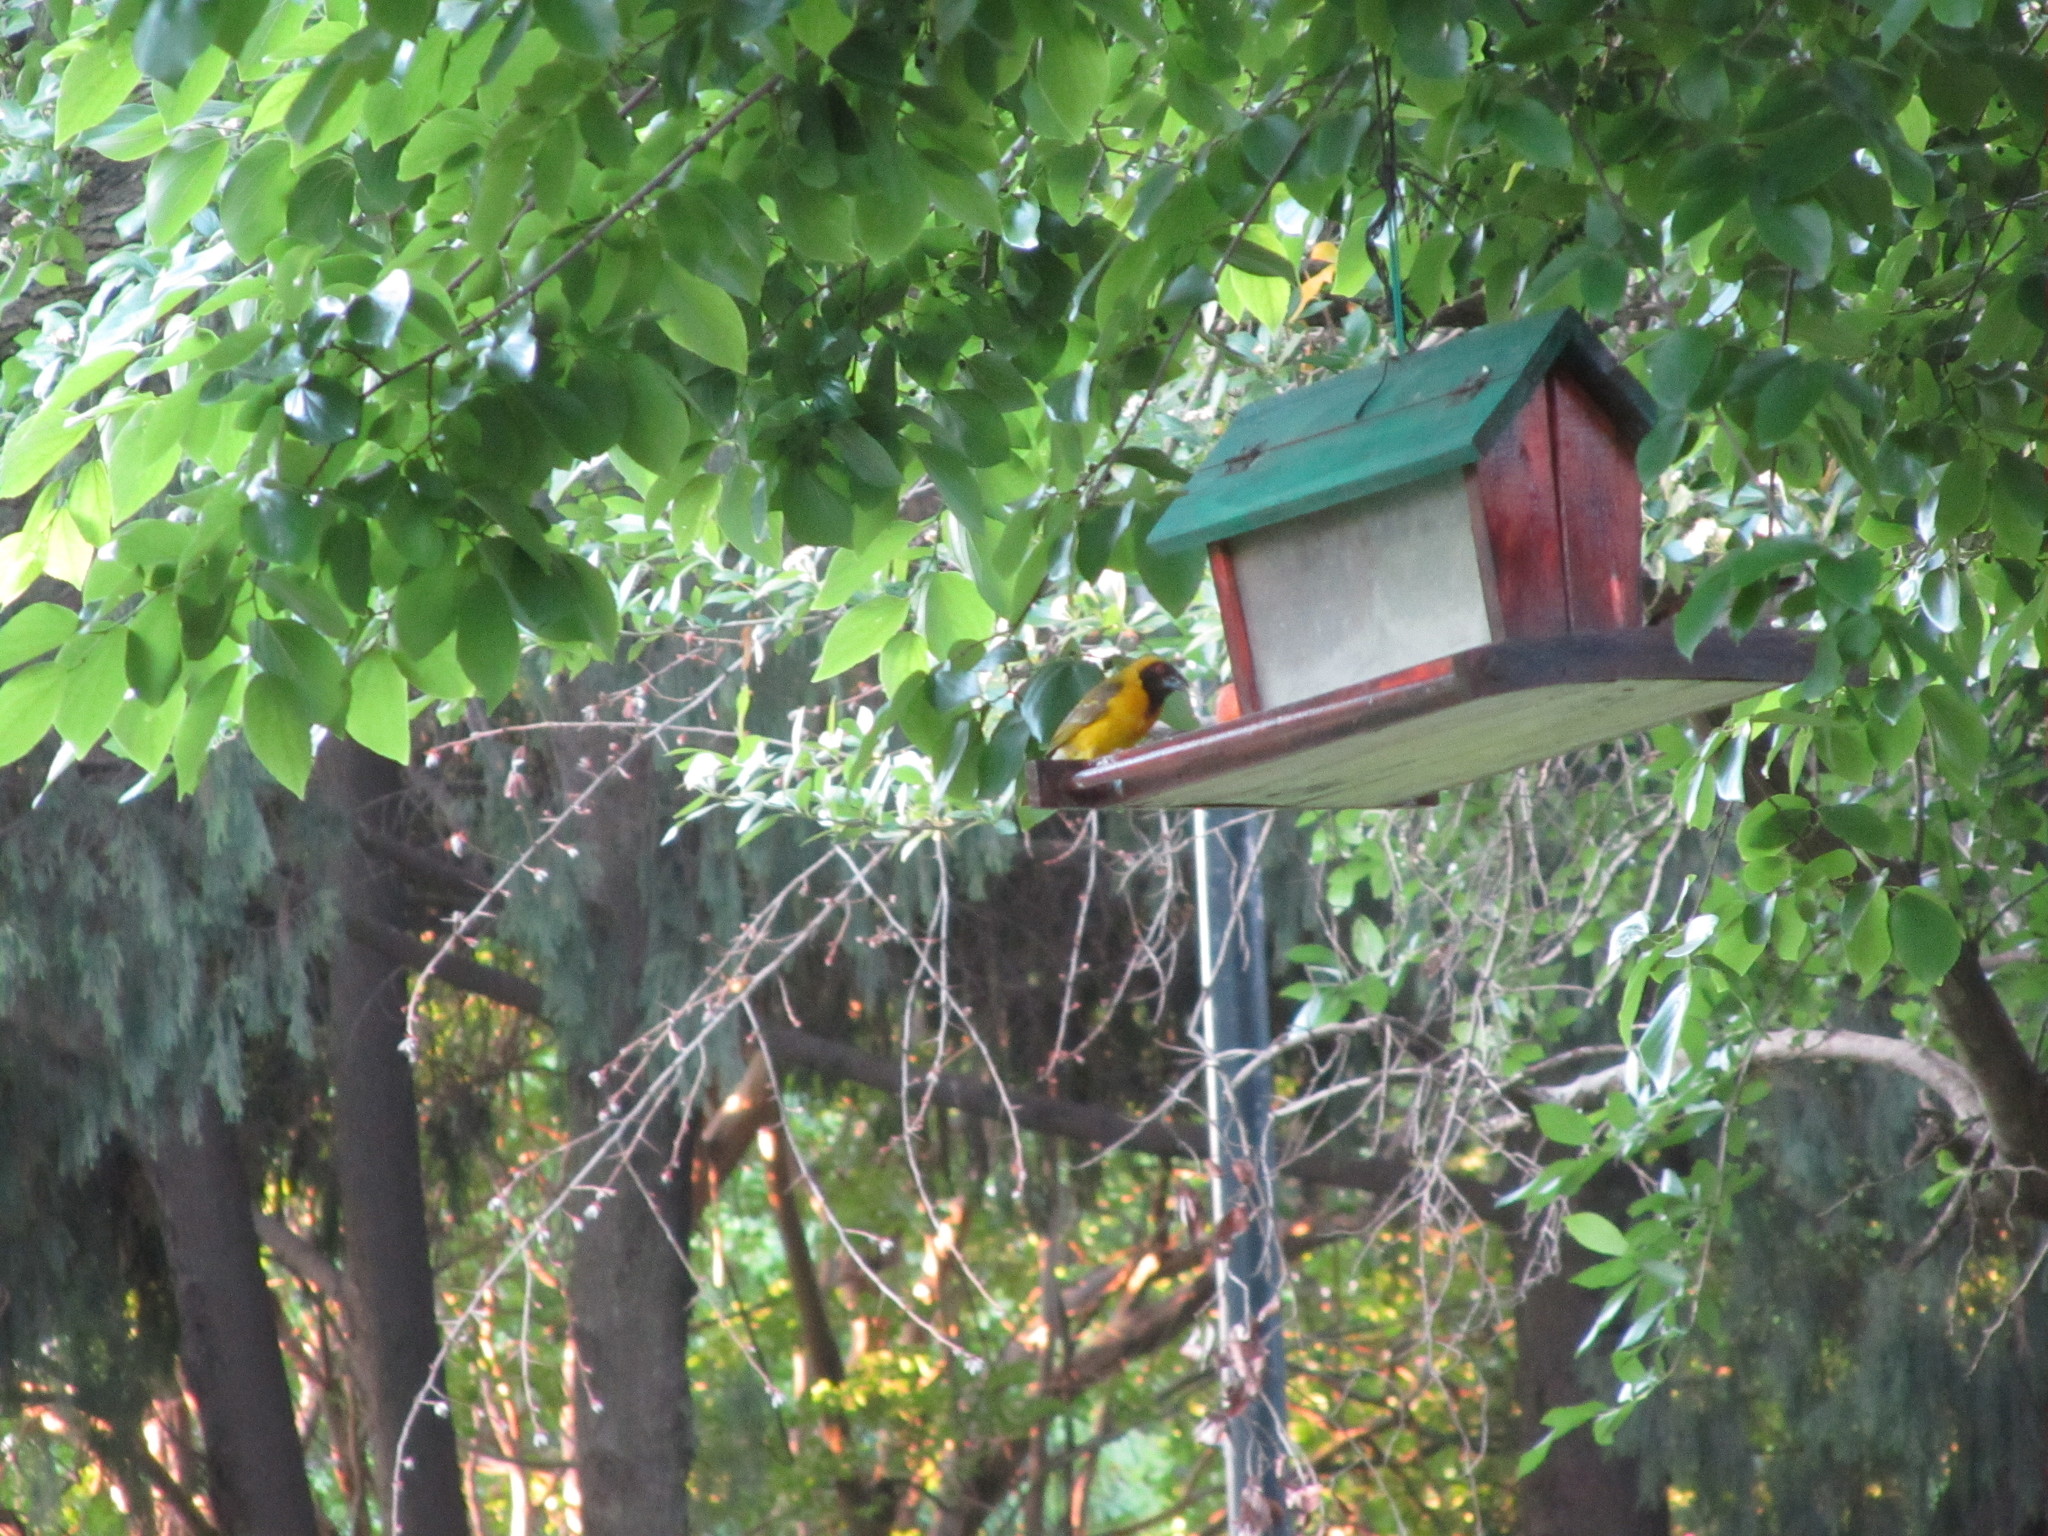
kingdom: Animalia
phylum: Chordata
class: Aves
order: Passeriformes
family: Ploceidae
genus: Ploceus
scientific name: Ploceus velatus
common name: Southern masked weaver
